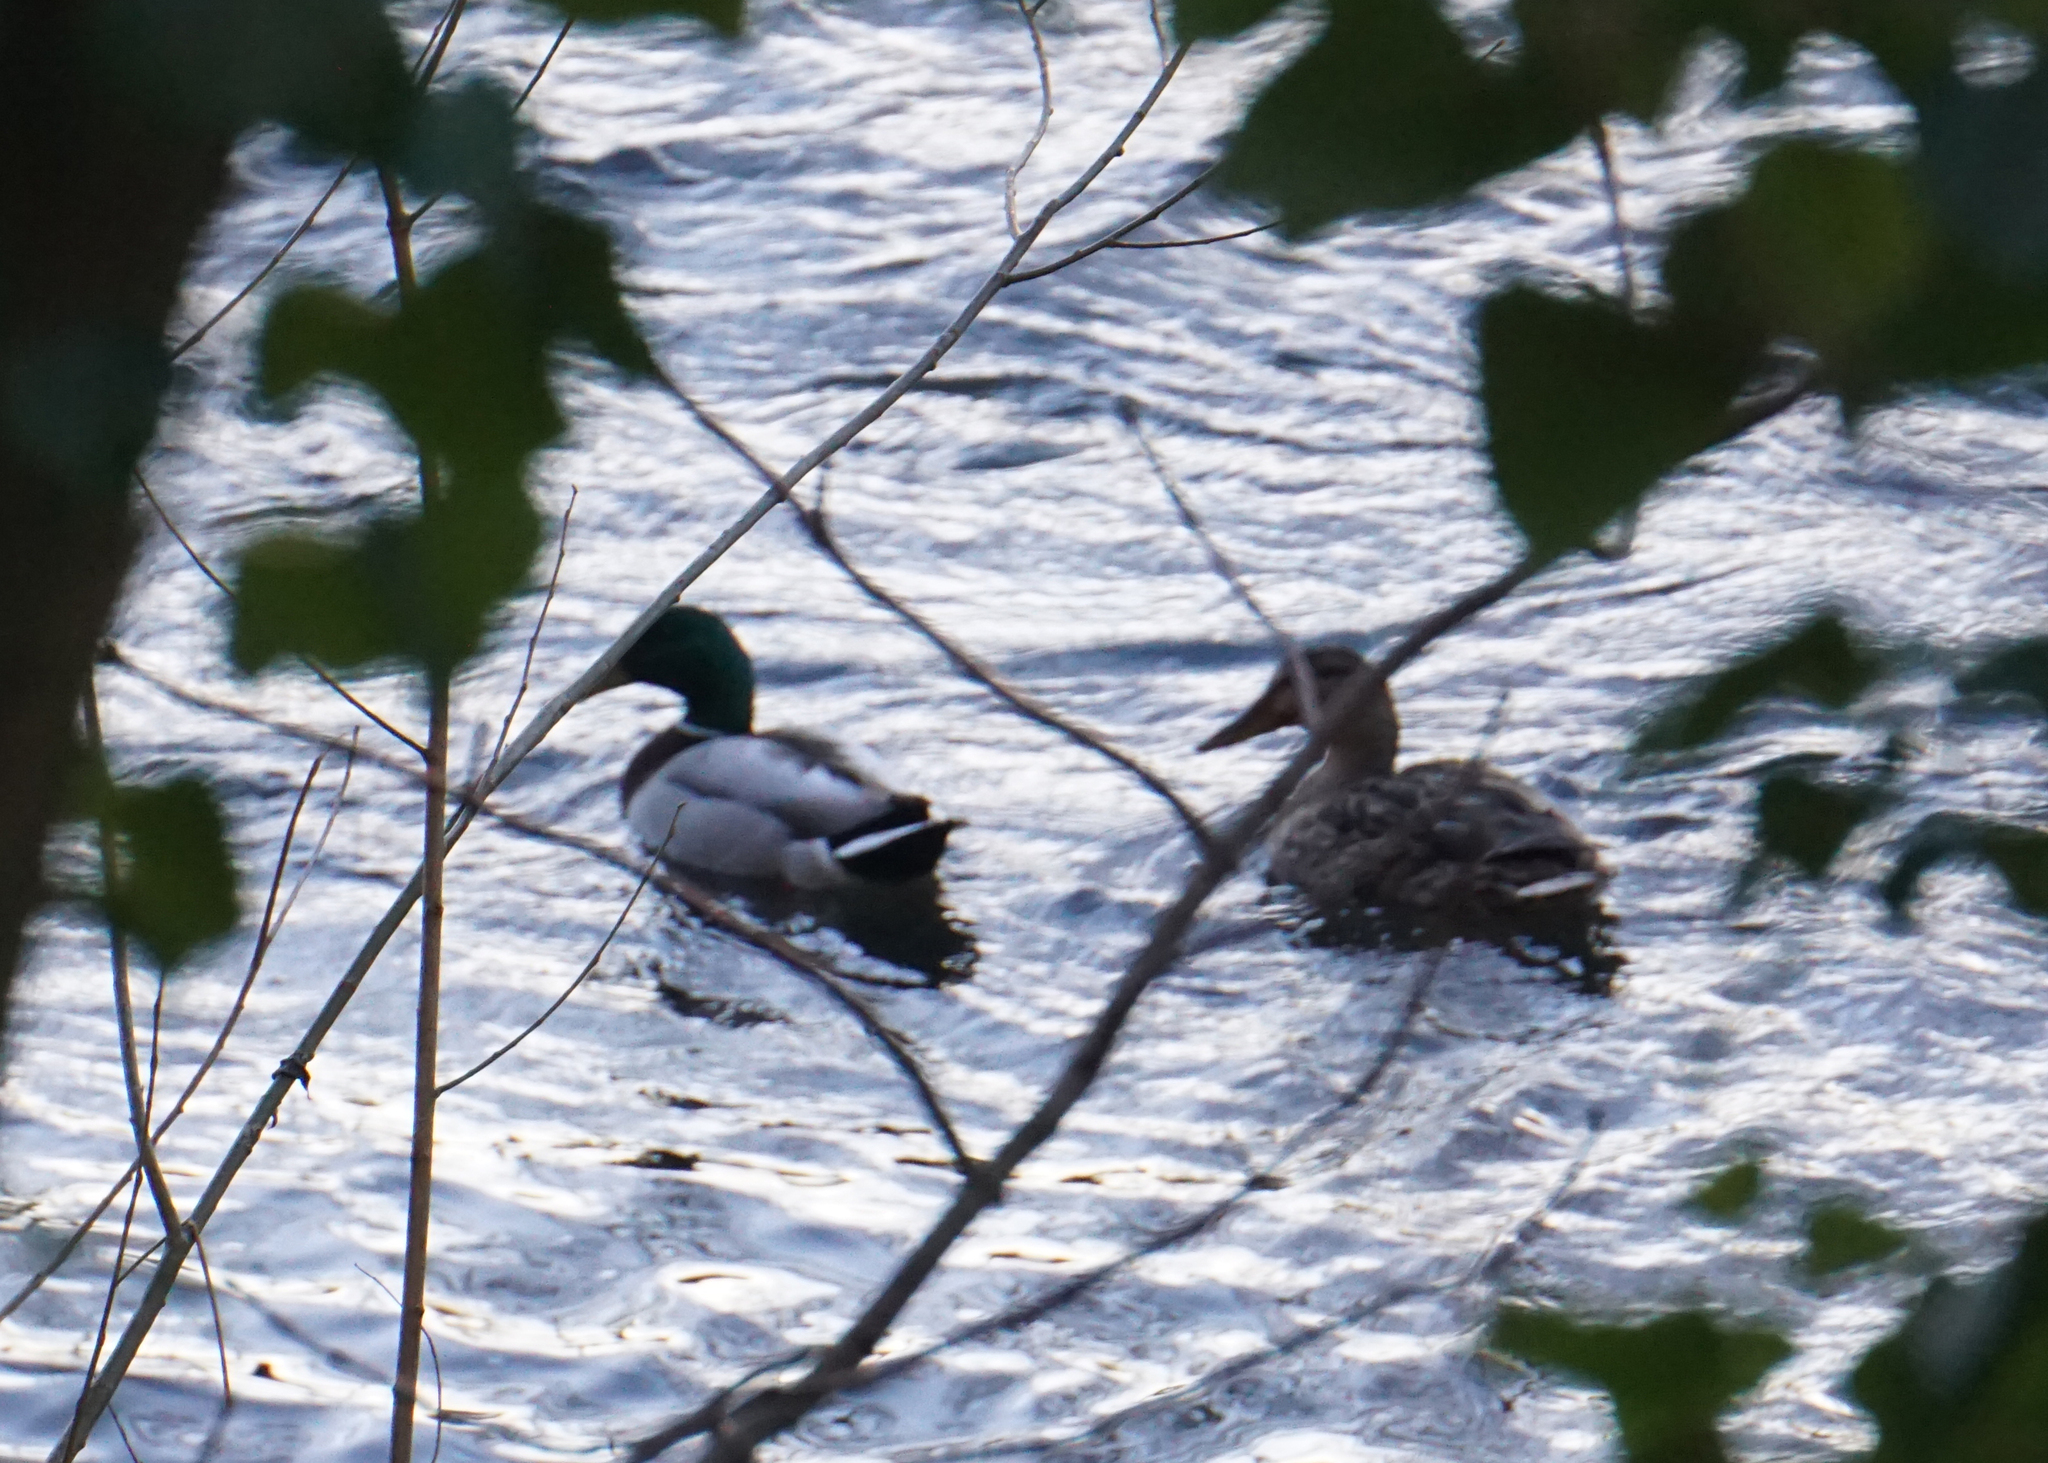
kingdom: Animalia
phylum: Chordata
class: Aves
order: Anseriformes
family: Anatidae
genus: Anas
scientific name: Anas platyrhynchos
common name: Mallard
